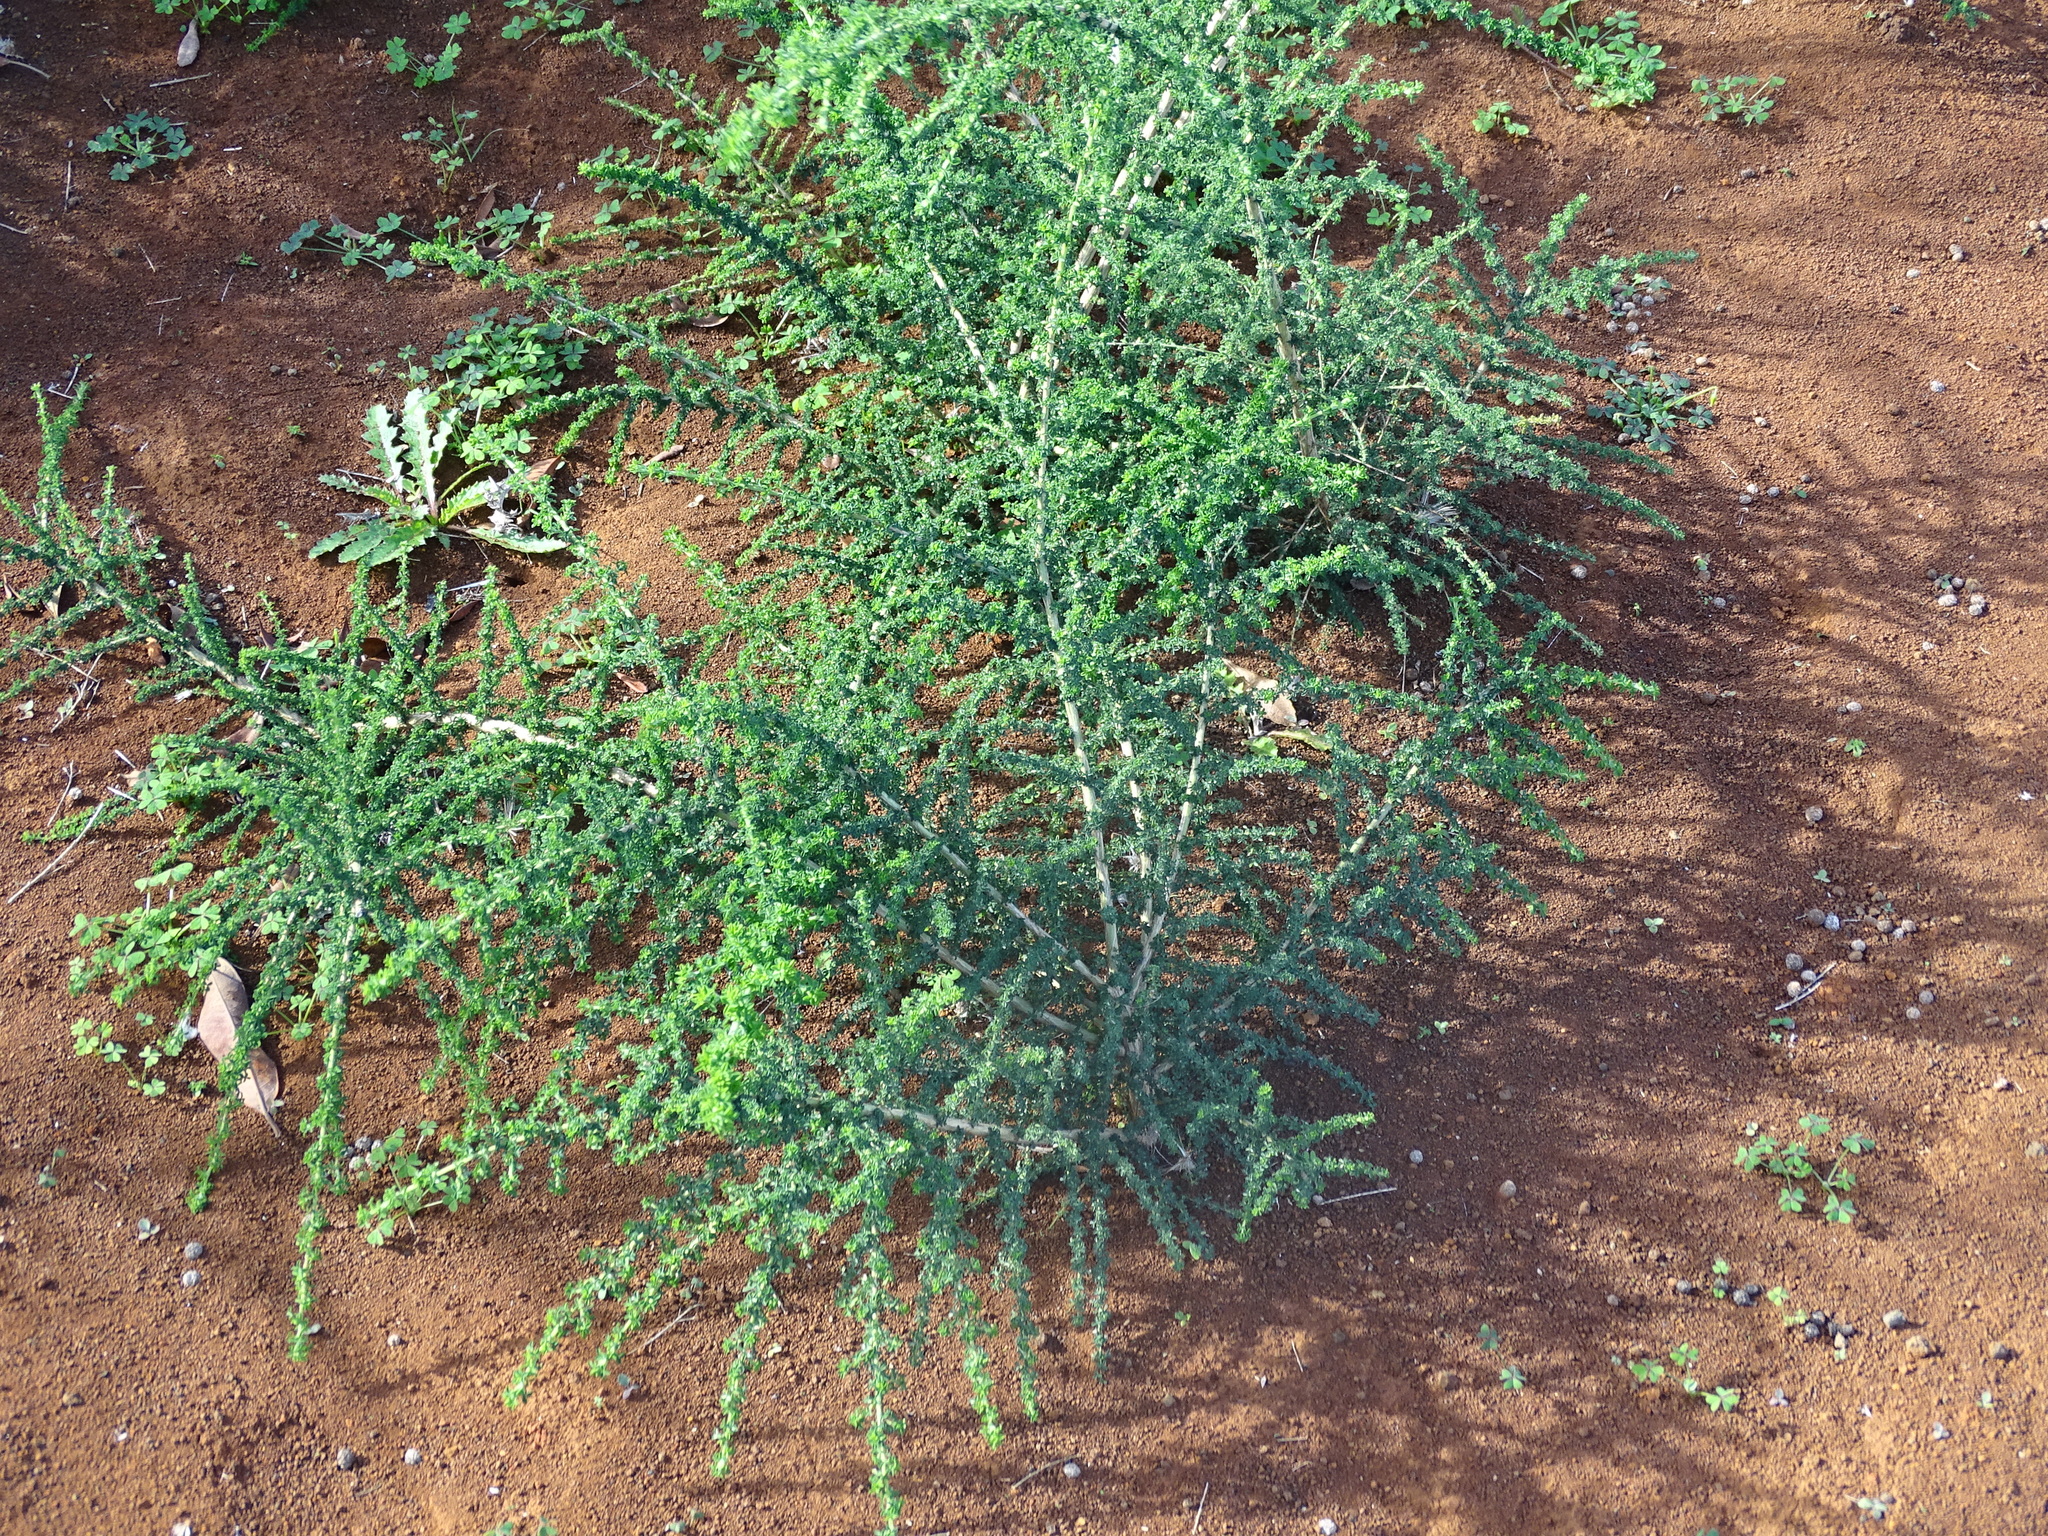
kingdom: Plantae
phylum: Tracheophyta
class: Magnoliopsida
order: Fabales
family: Fabaceae
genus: Adenocarpus
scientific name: Adenocarpus foliolosus
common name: Canary island flatpod
